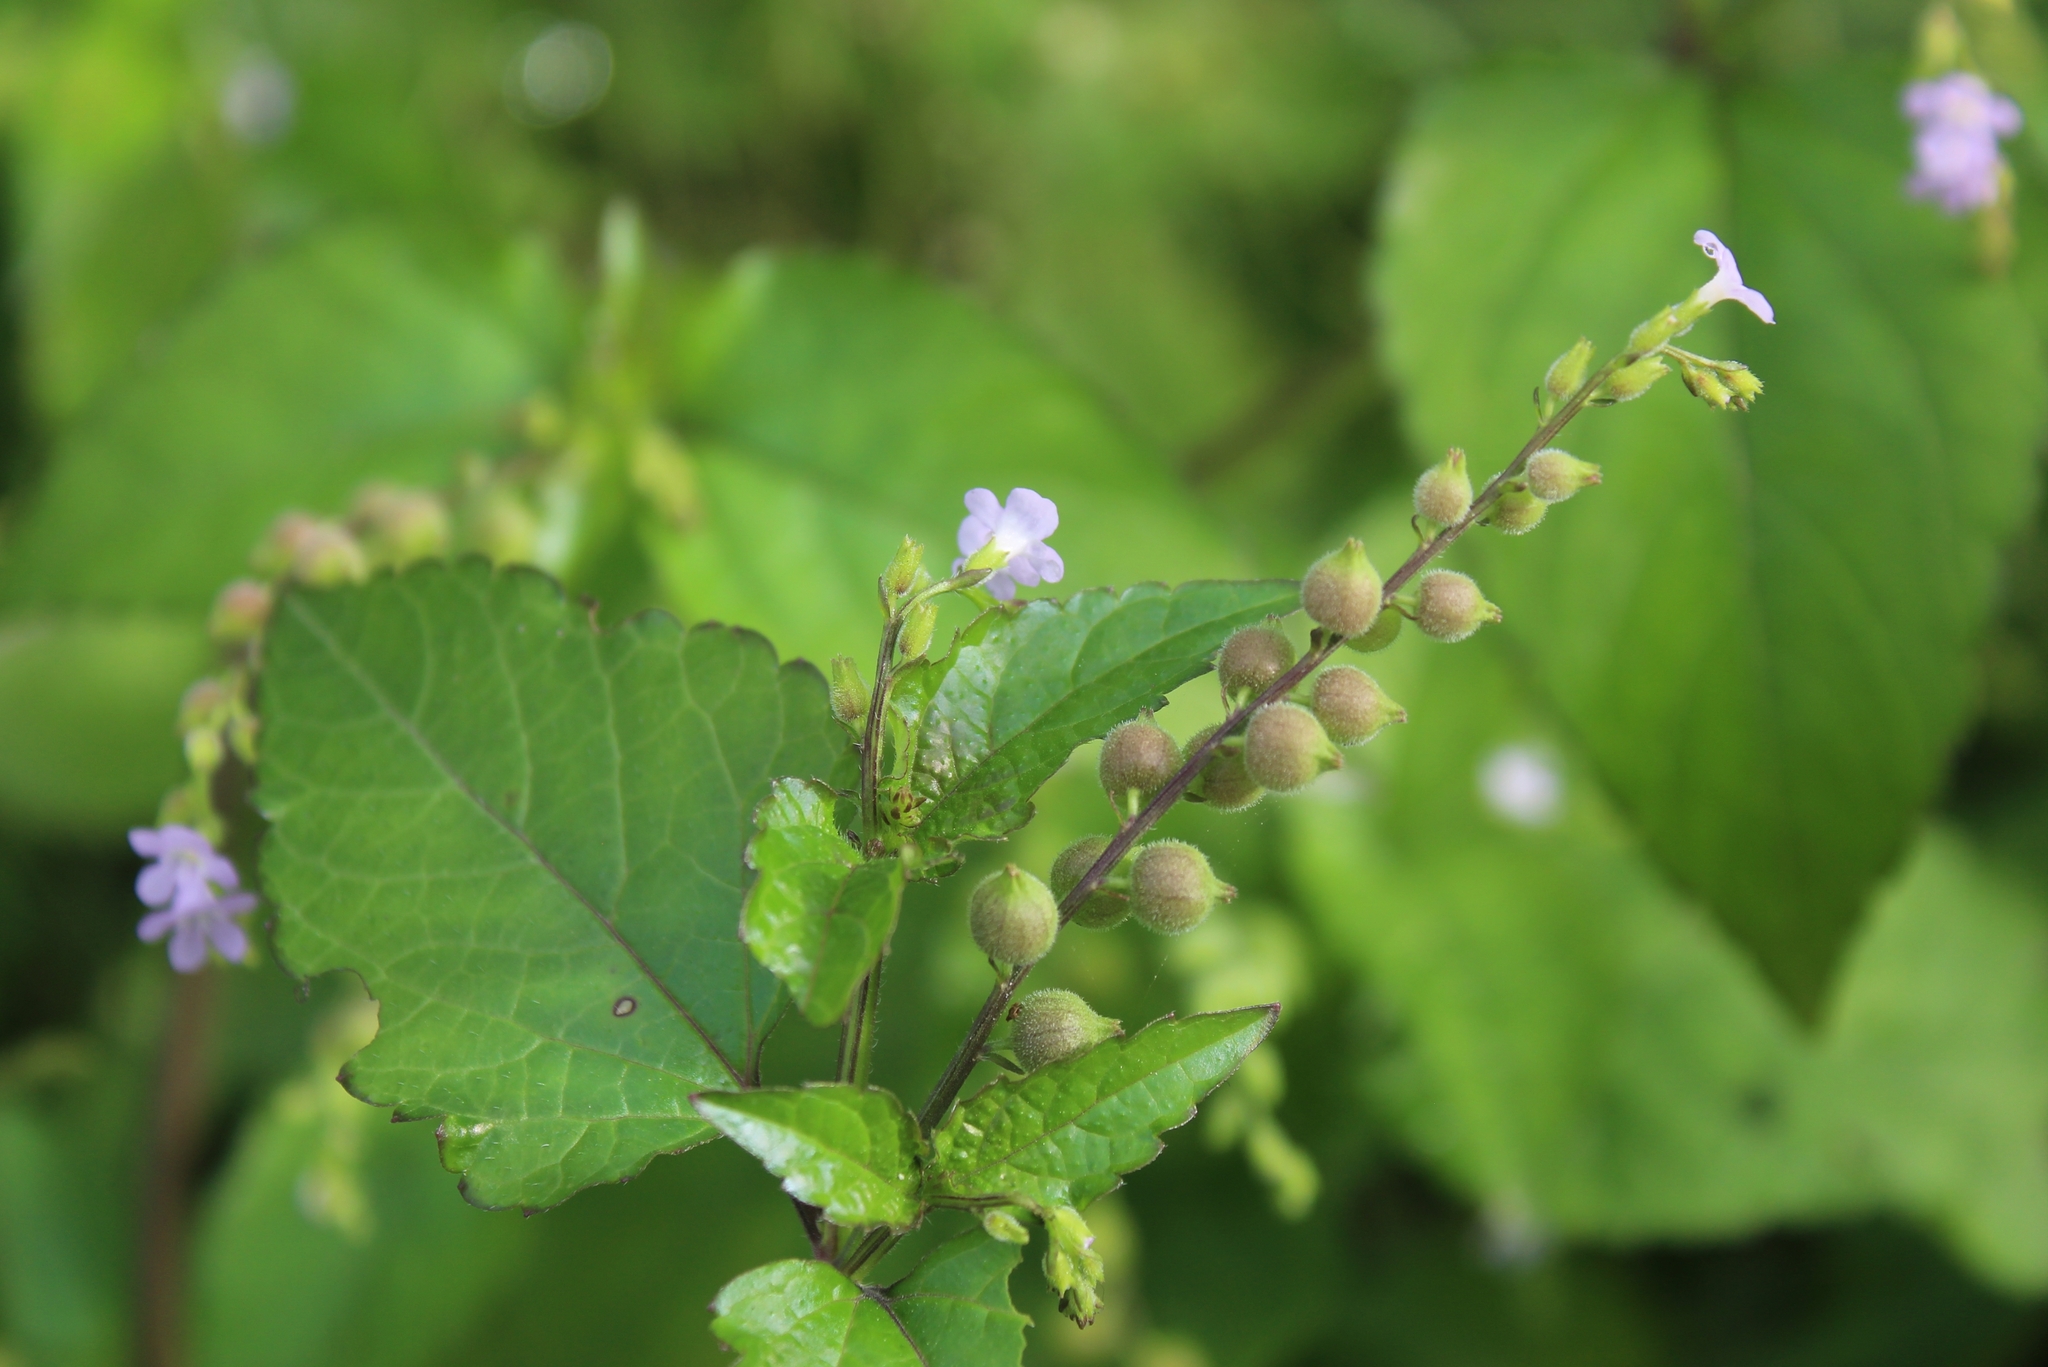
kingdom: Plantae
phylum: Tracheophyta
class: Magnoliopsida
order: Lamiales
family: Verbenaceae
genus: Priva
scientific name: Priva lappulacea
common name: Fasten-'pon-coat
